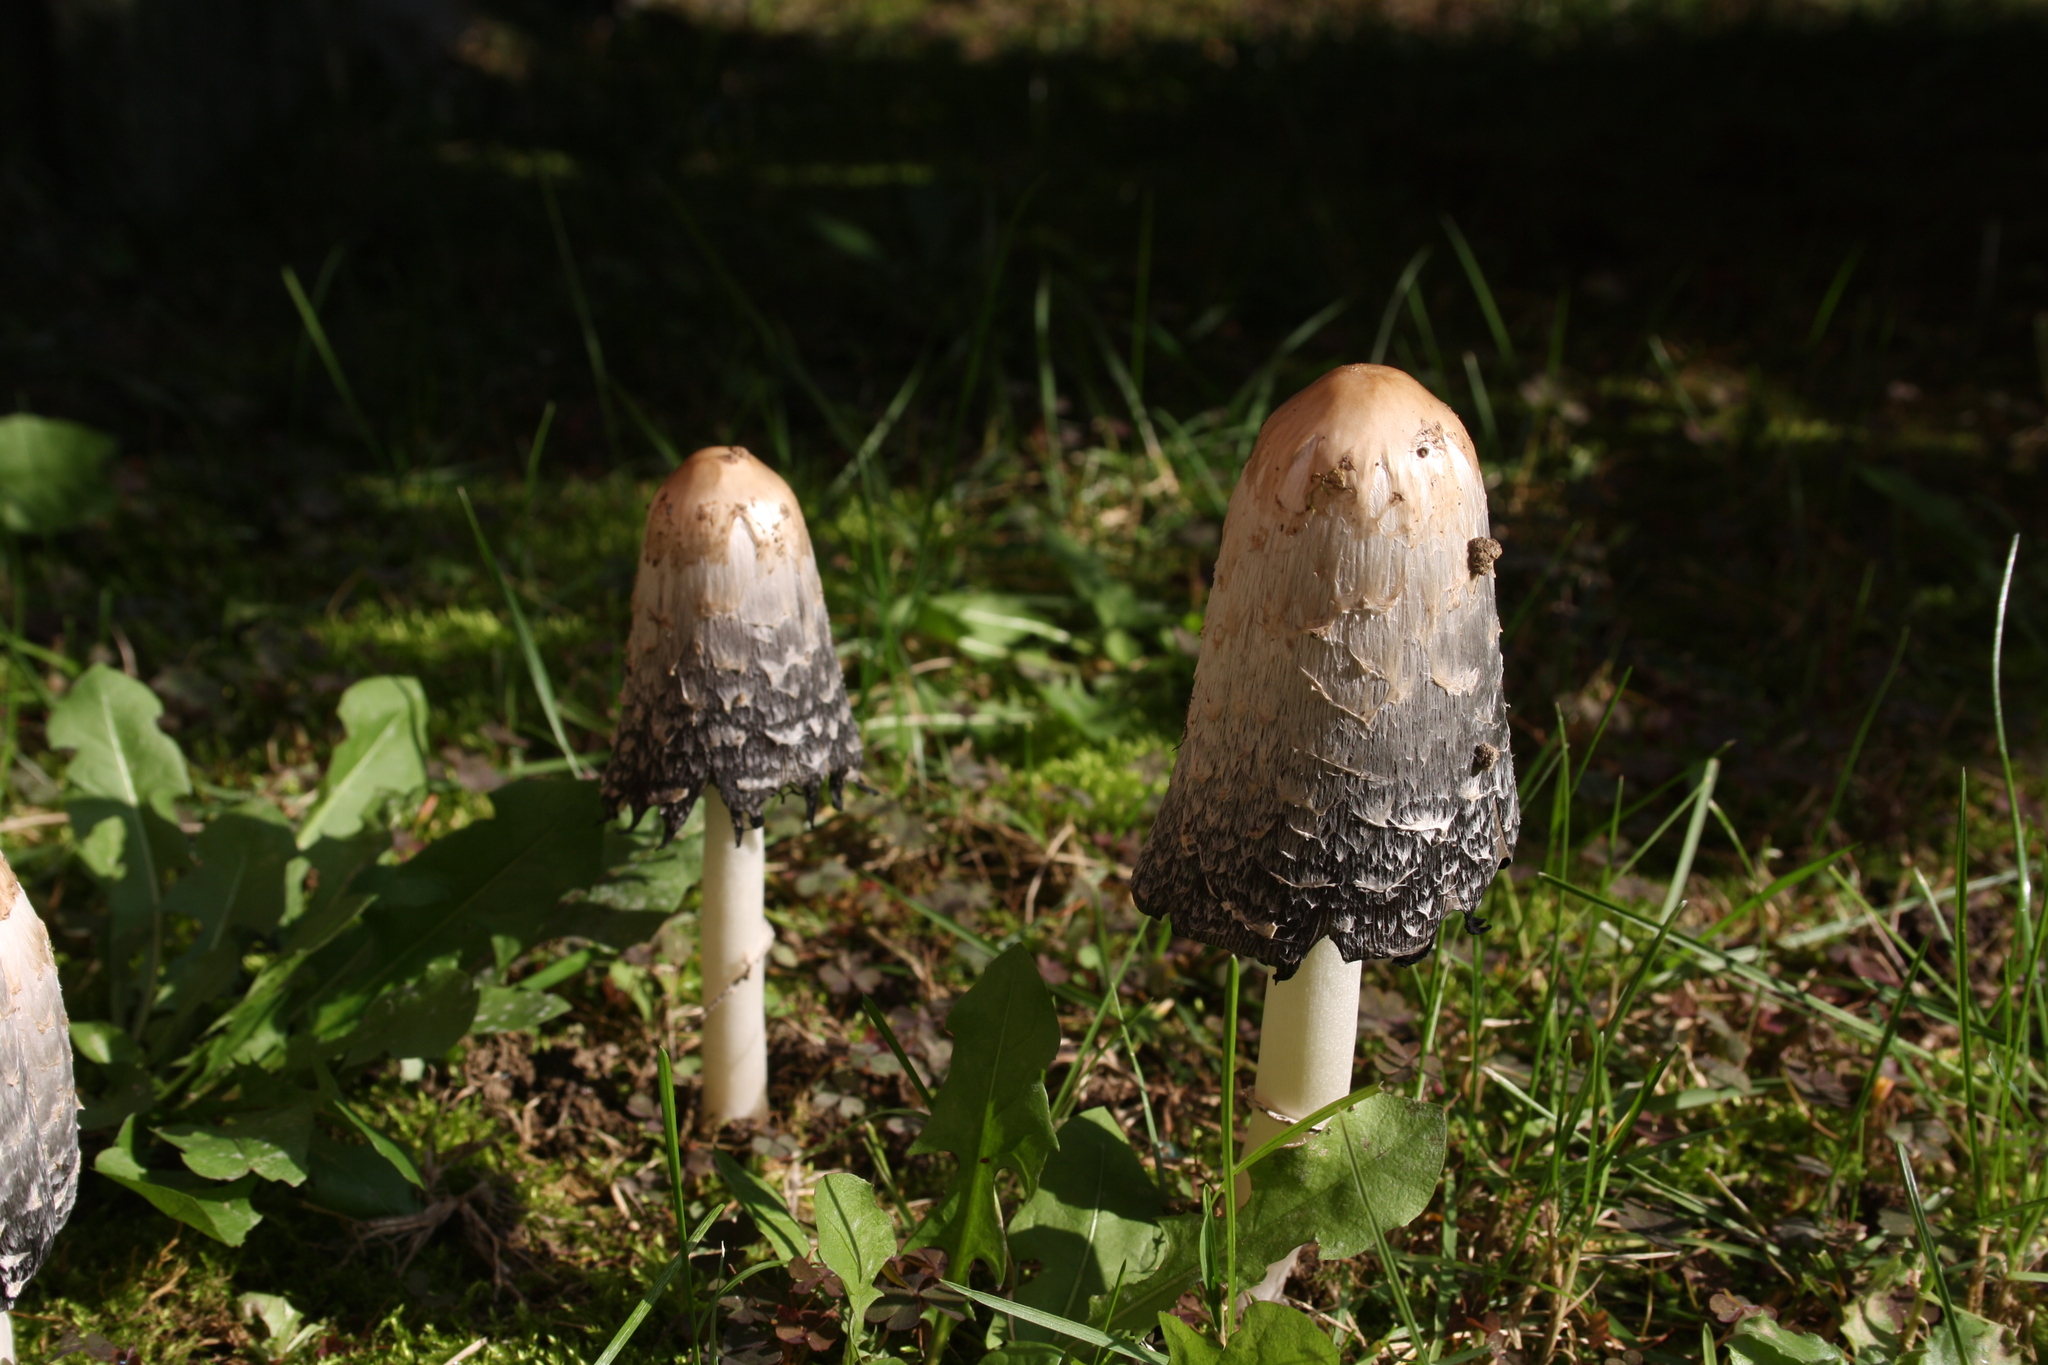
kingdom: Fungi
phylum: Basidiomycota
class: Agaricomycetes
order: Agaricales
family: Agaricaceae
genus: Coprinus
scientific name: Coprinus comatus
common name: Lawyer's wig
